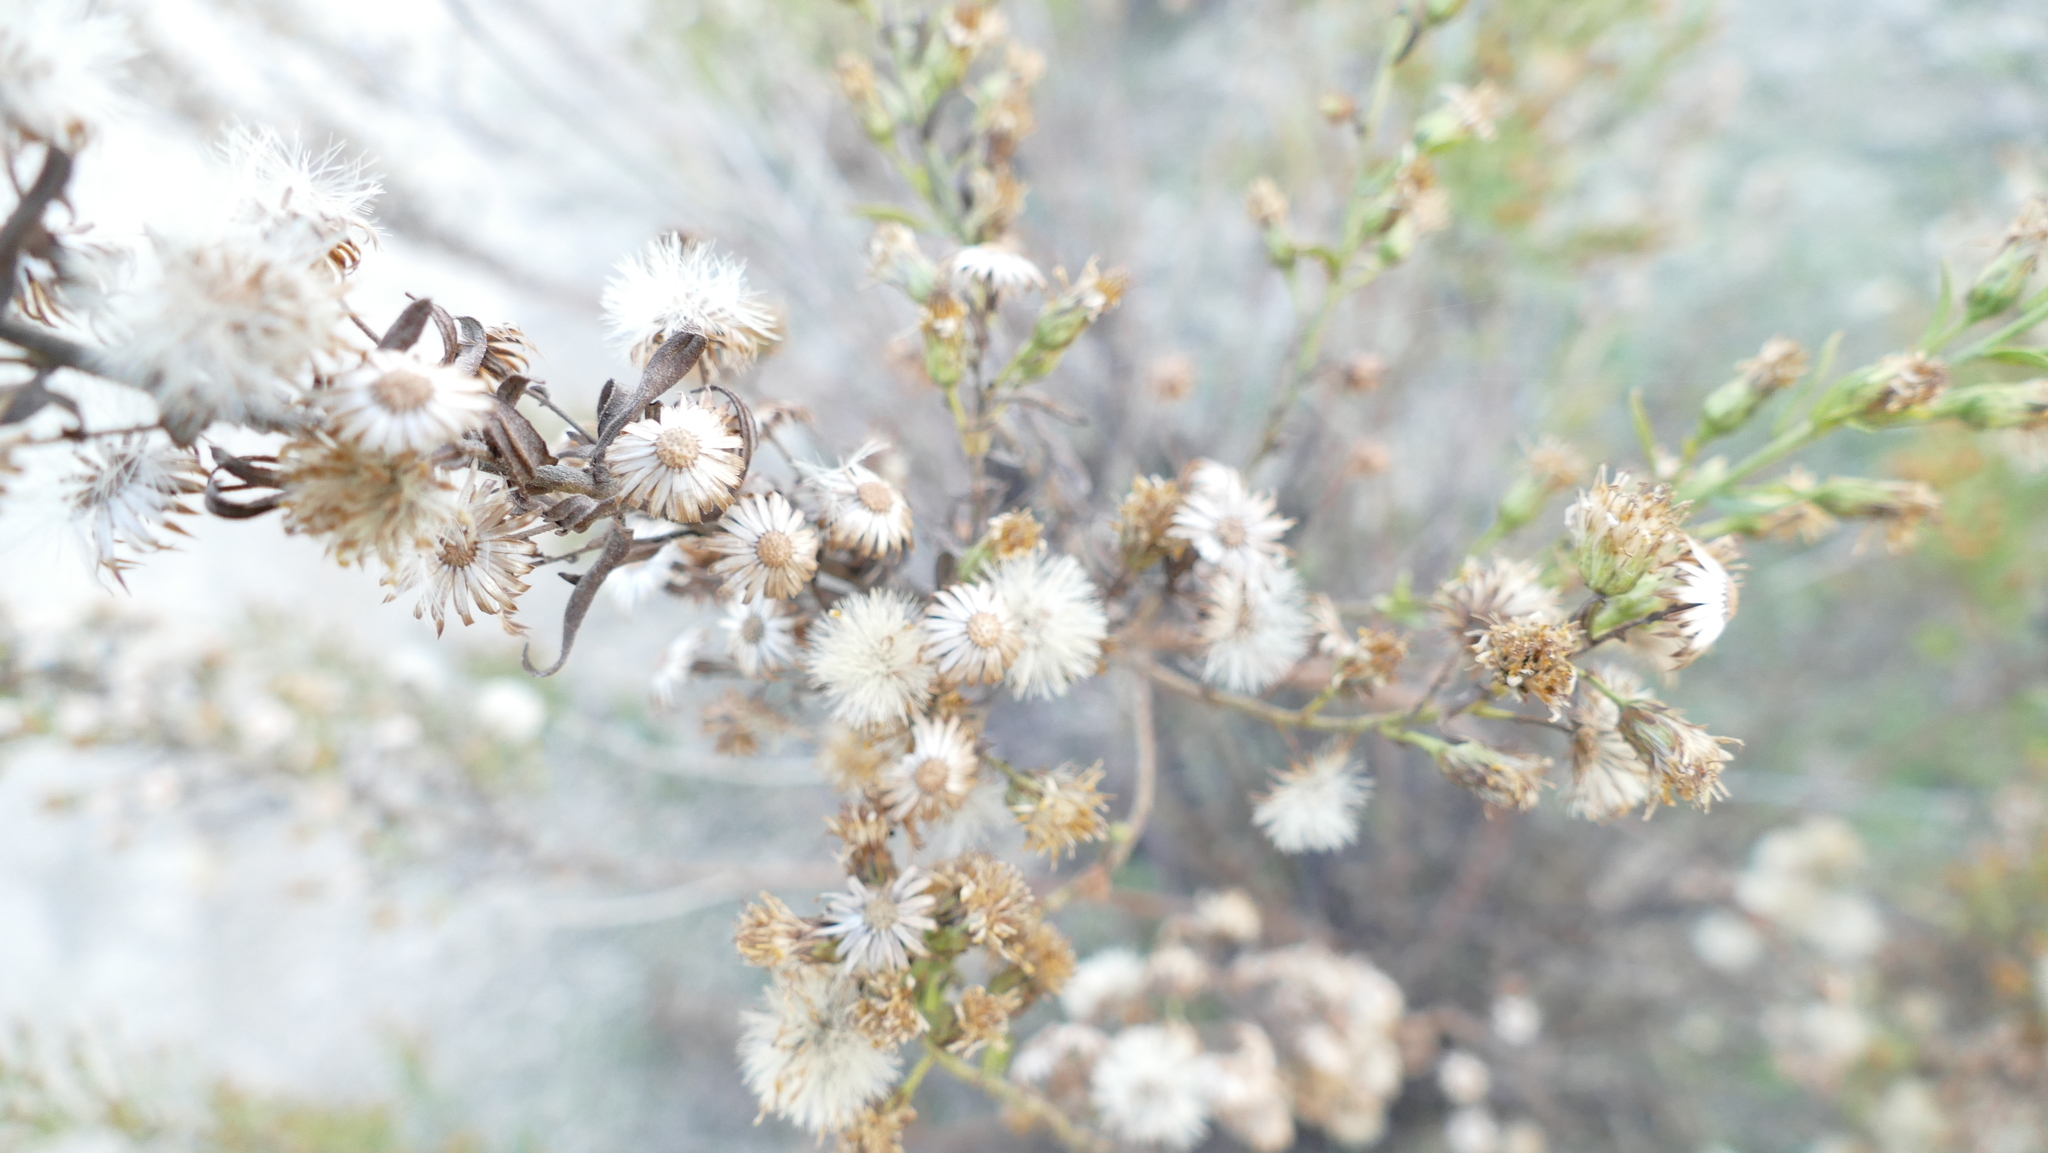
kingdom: Plantae
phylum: Tracheophyta
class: Magnoliopsida
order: Asterales
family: Asteraceae
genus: Dittrichia
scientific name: Dittrichia viscosa
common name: Woody fleabane
